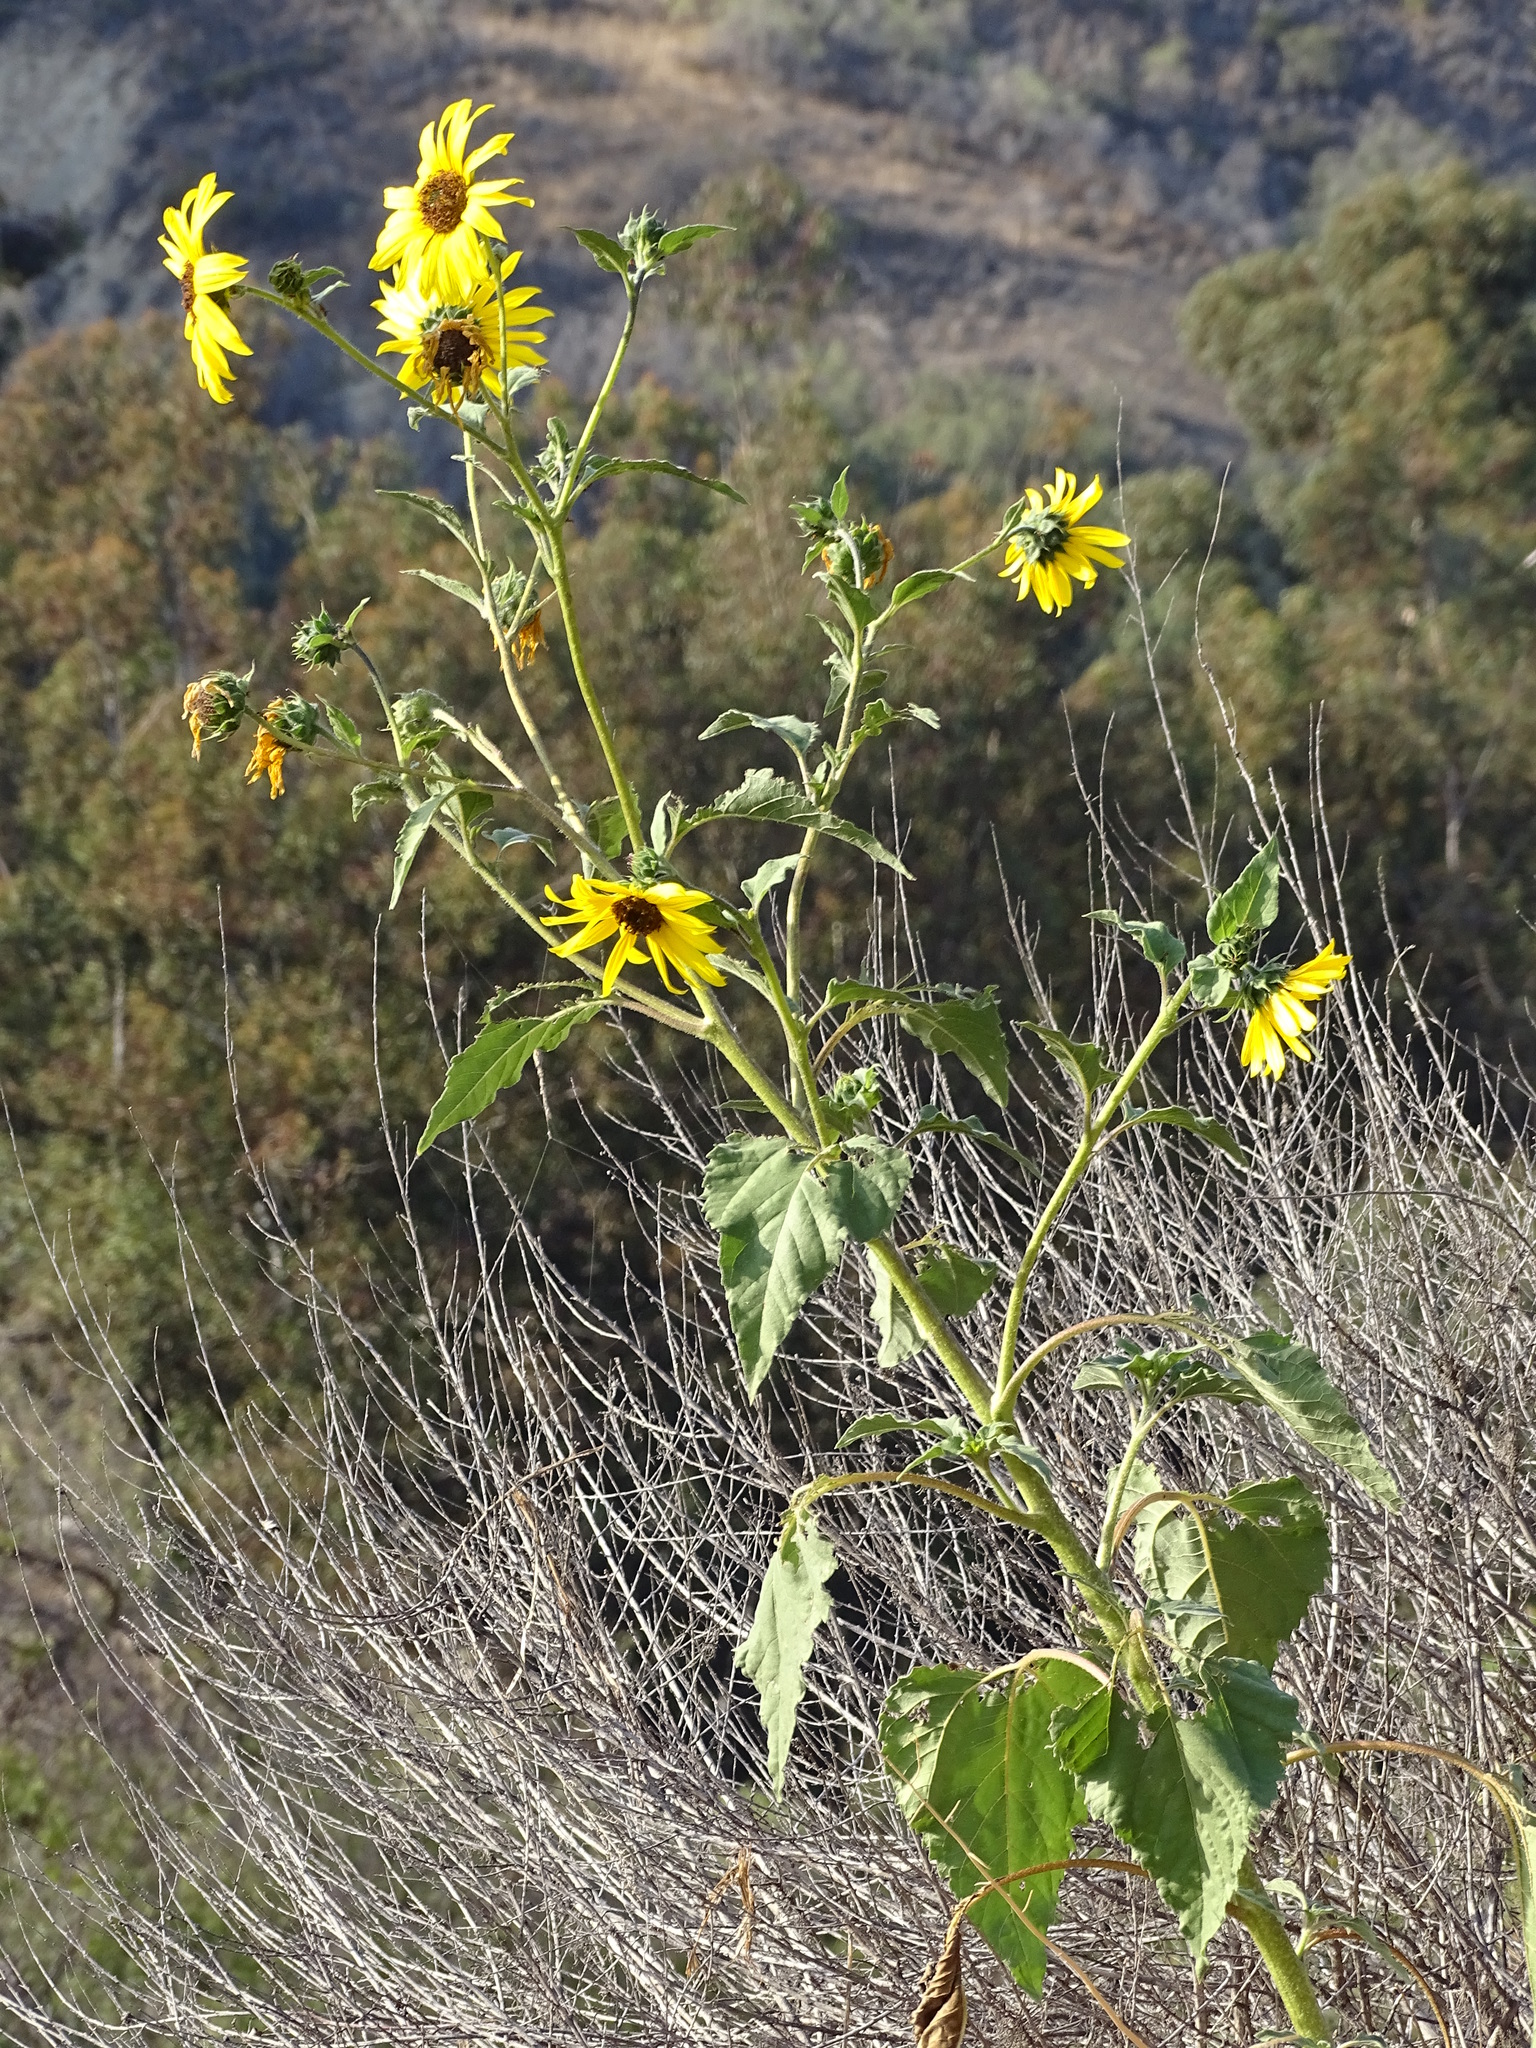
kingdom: Plantae
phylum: Tracheophyta
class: Magnoliopsida
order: Asterales
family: Asteraceae
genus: Helianthus
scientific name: Helianthus annuus
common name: Sunflower
